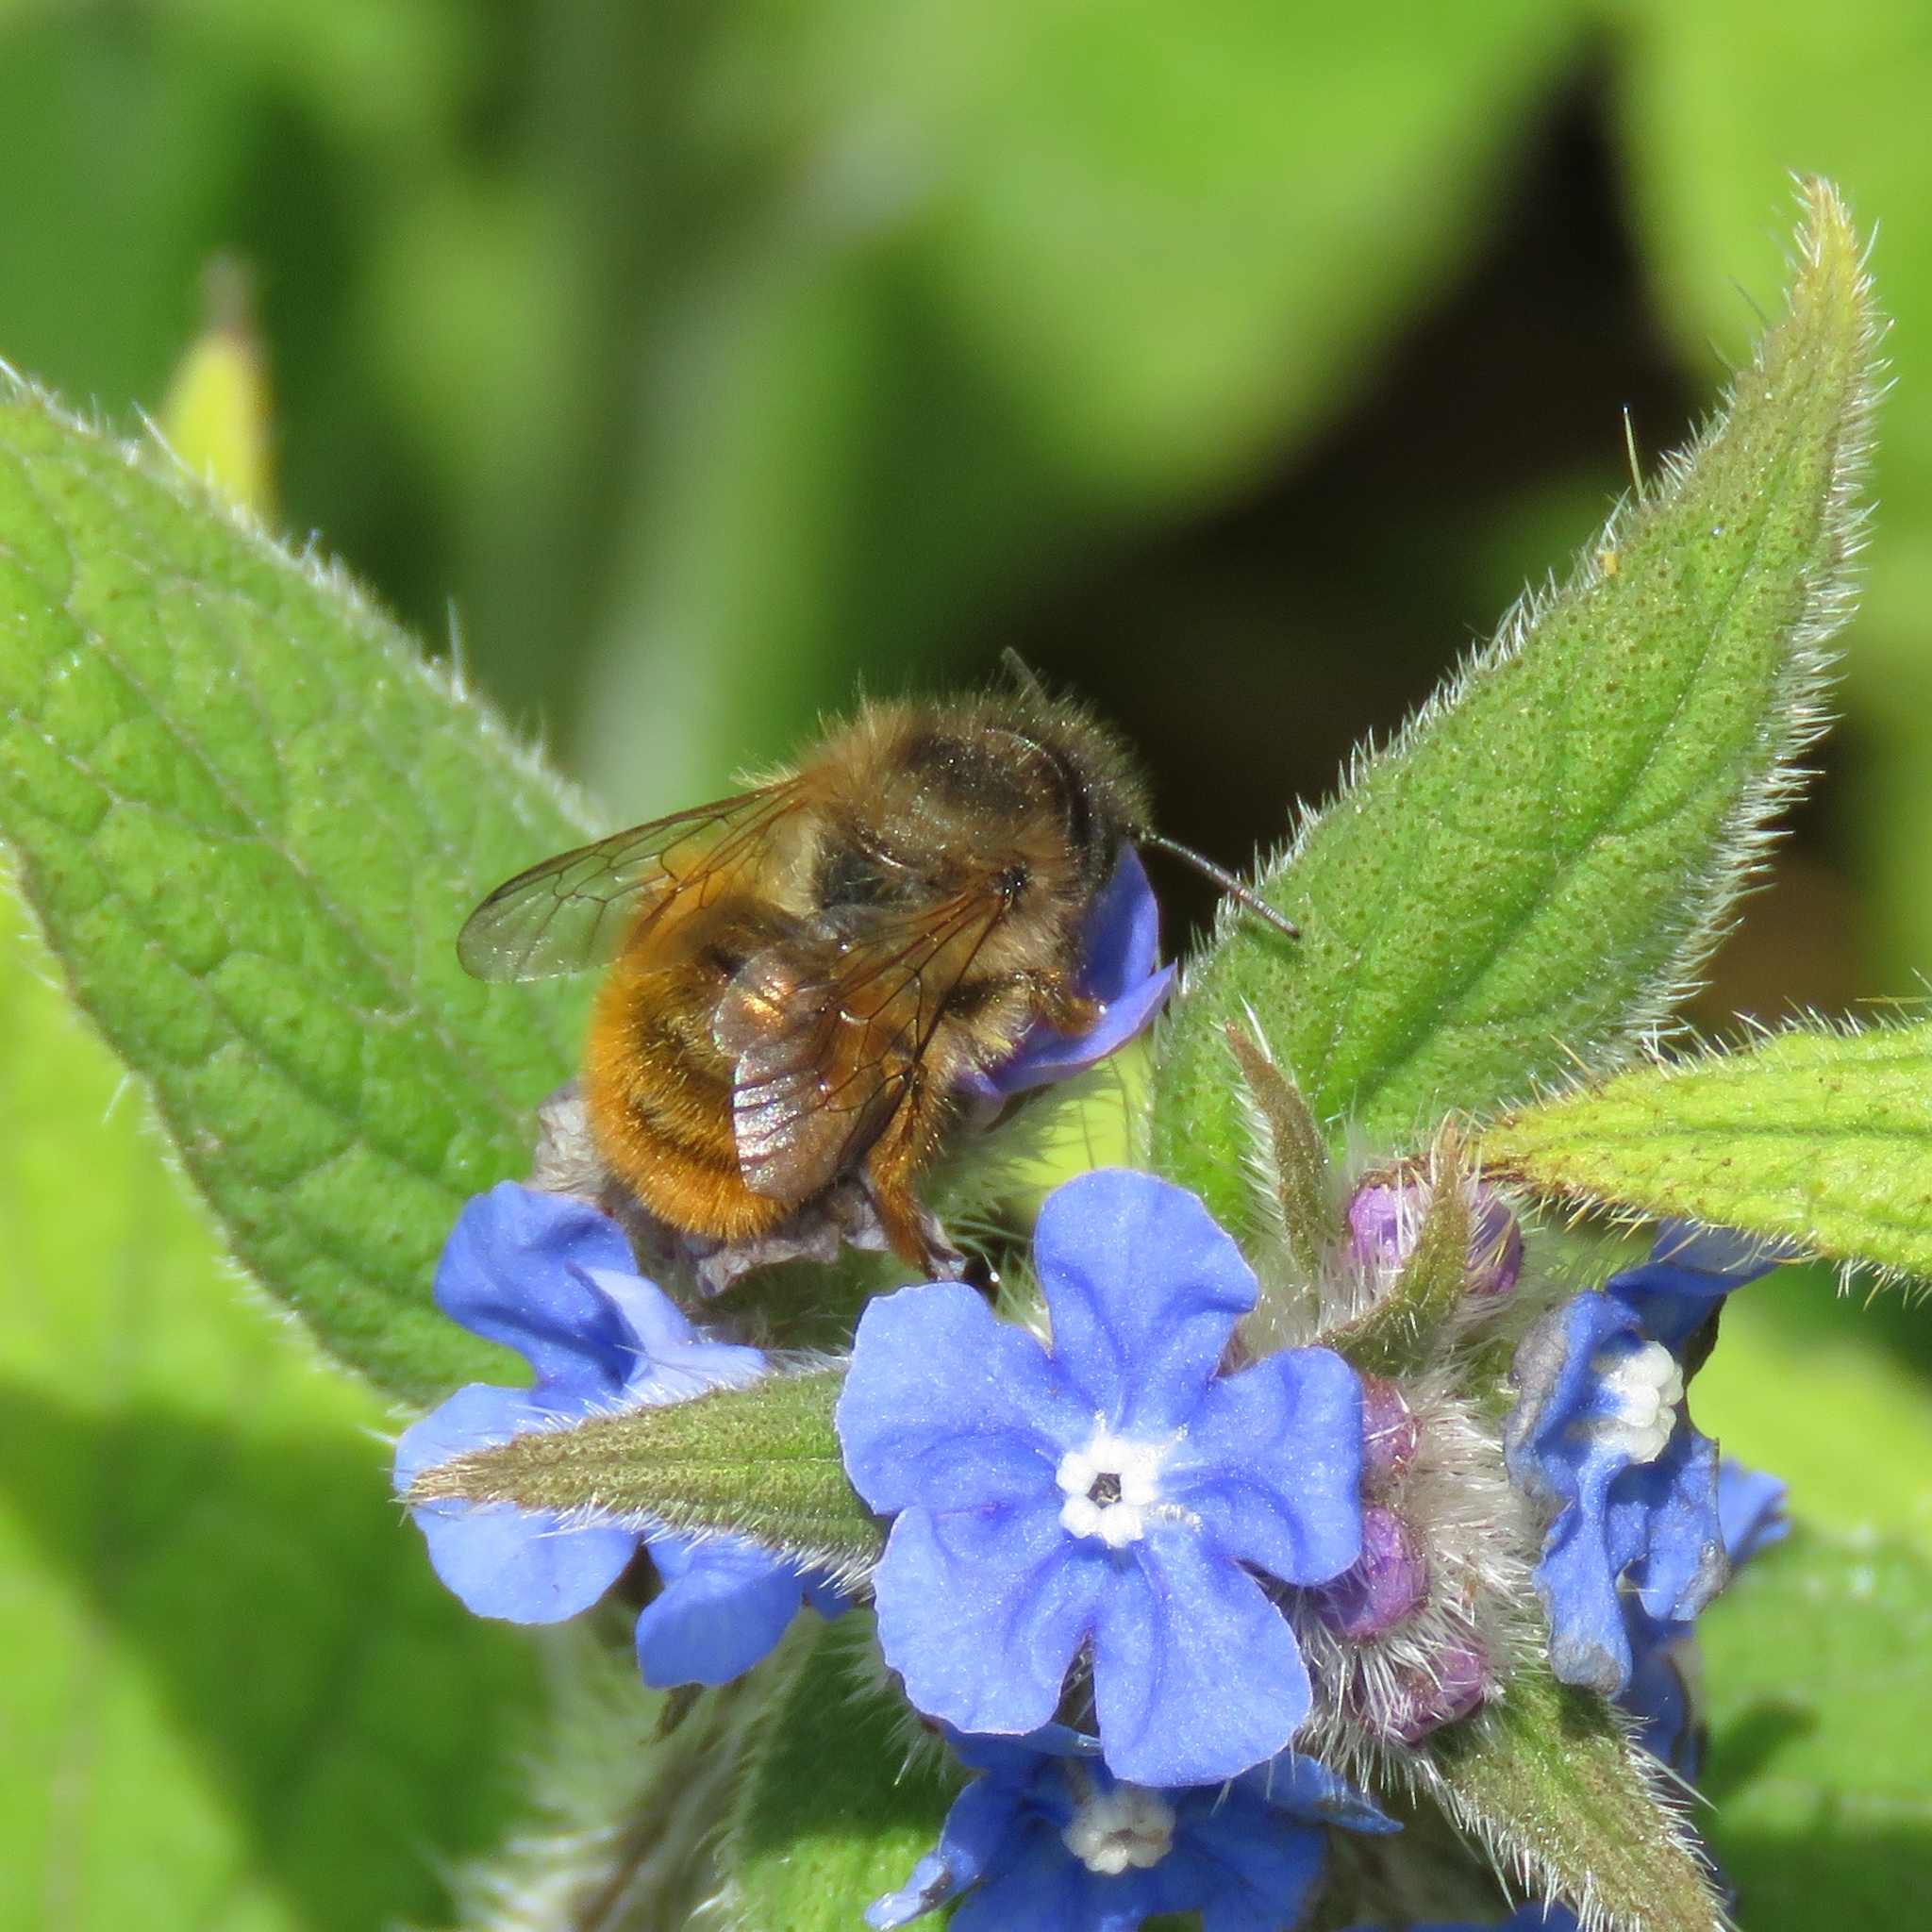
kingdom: Animalia
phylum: Arthropoda
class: Insecta
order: Hymenoptera
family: Megachilidae
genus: Osmia
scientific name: Osmia bicornis
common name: Red mason bee
